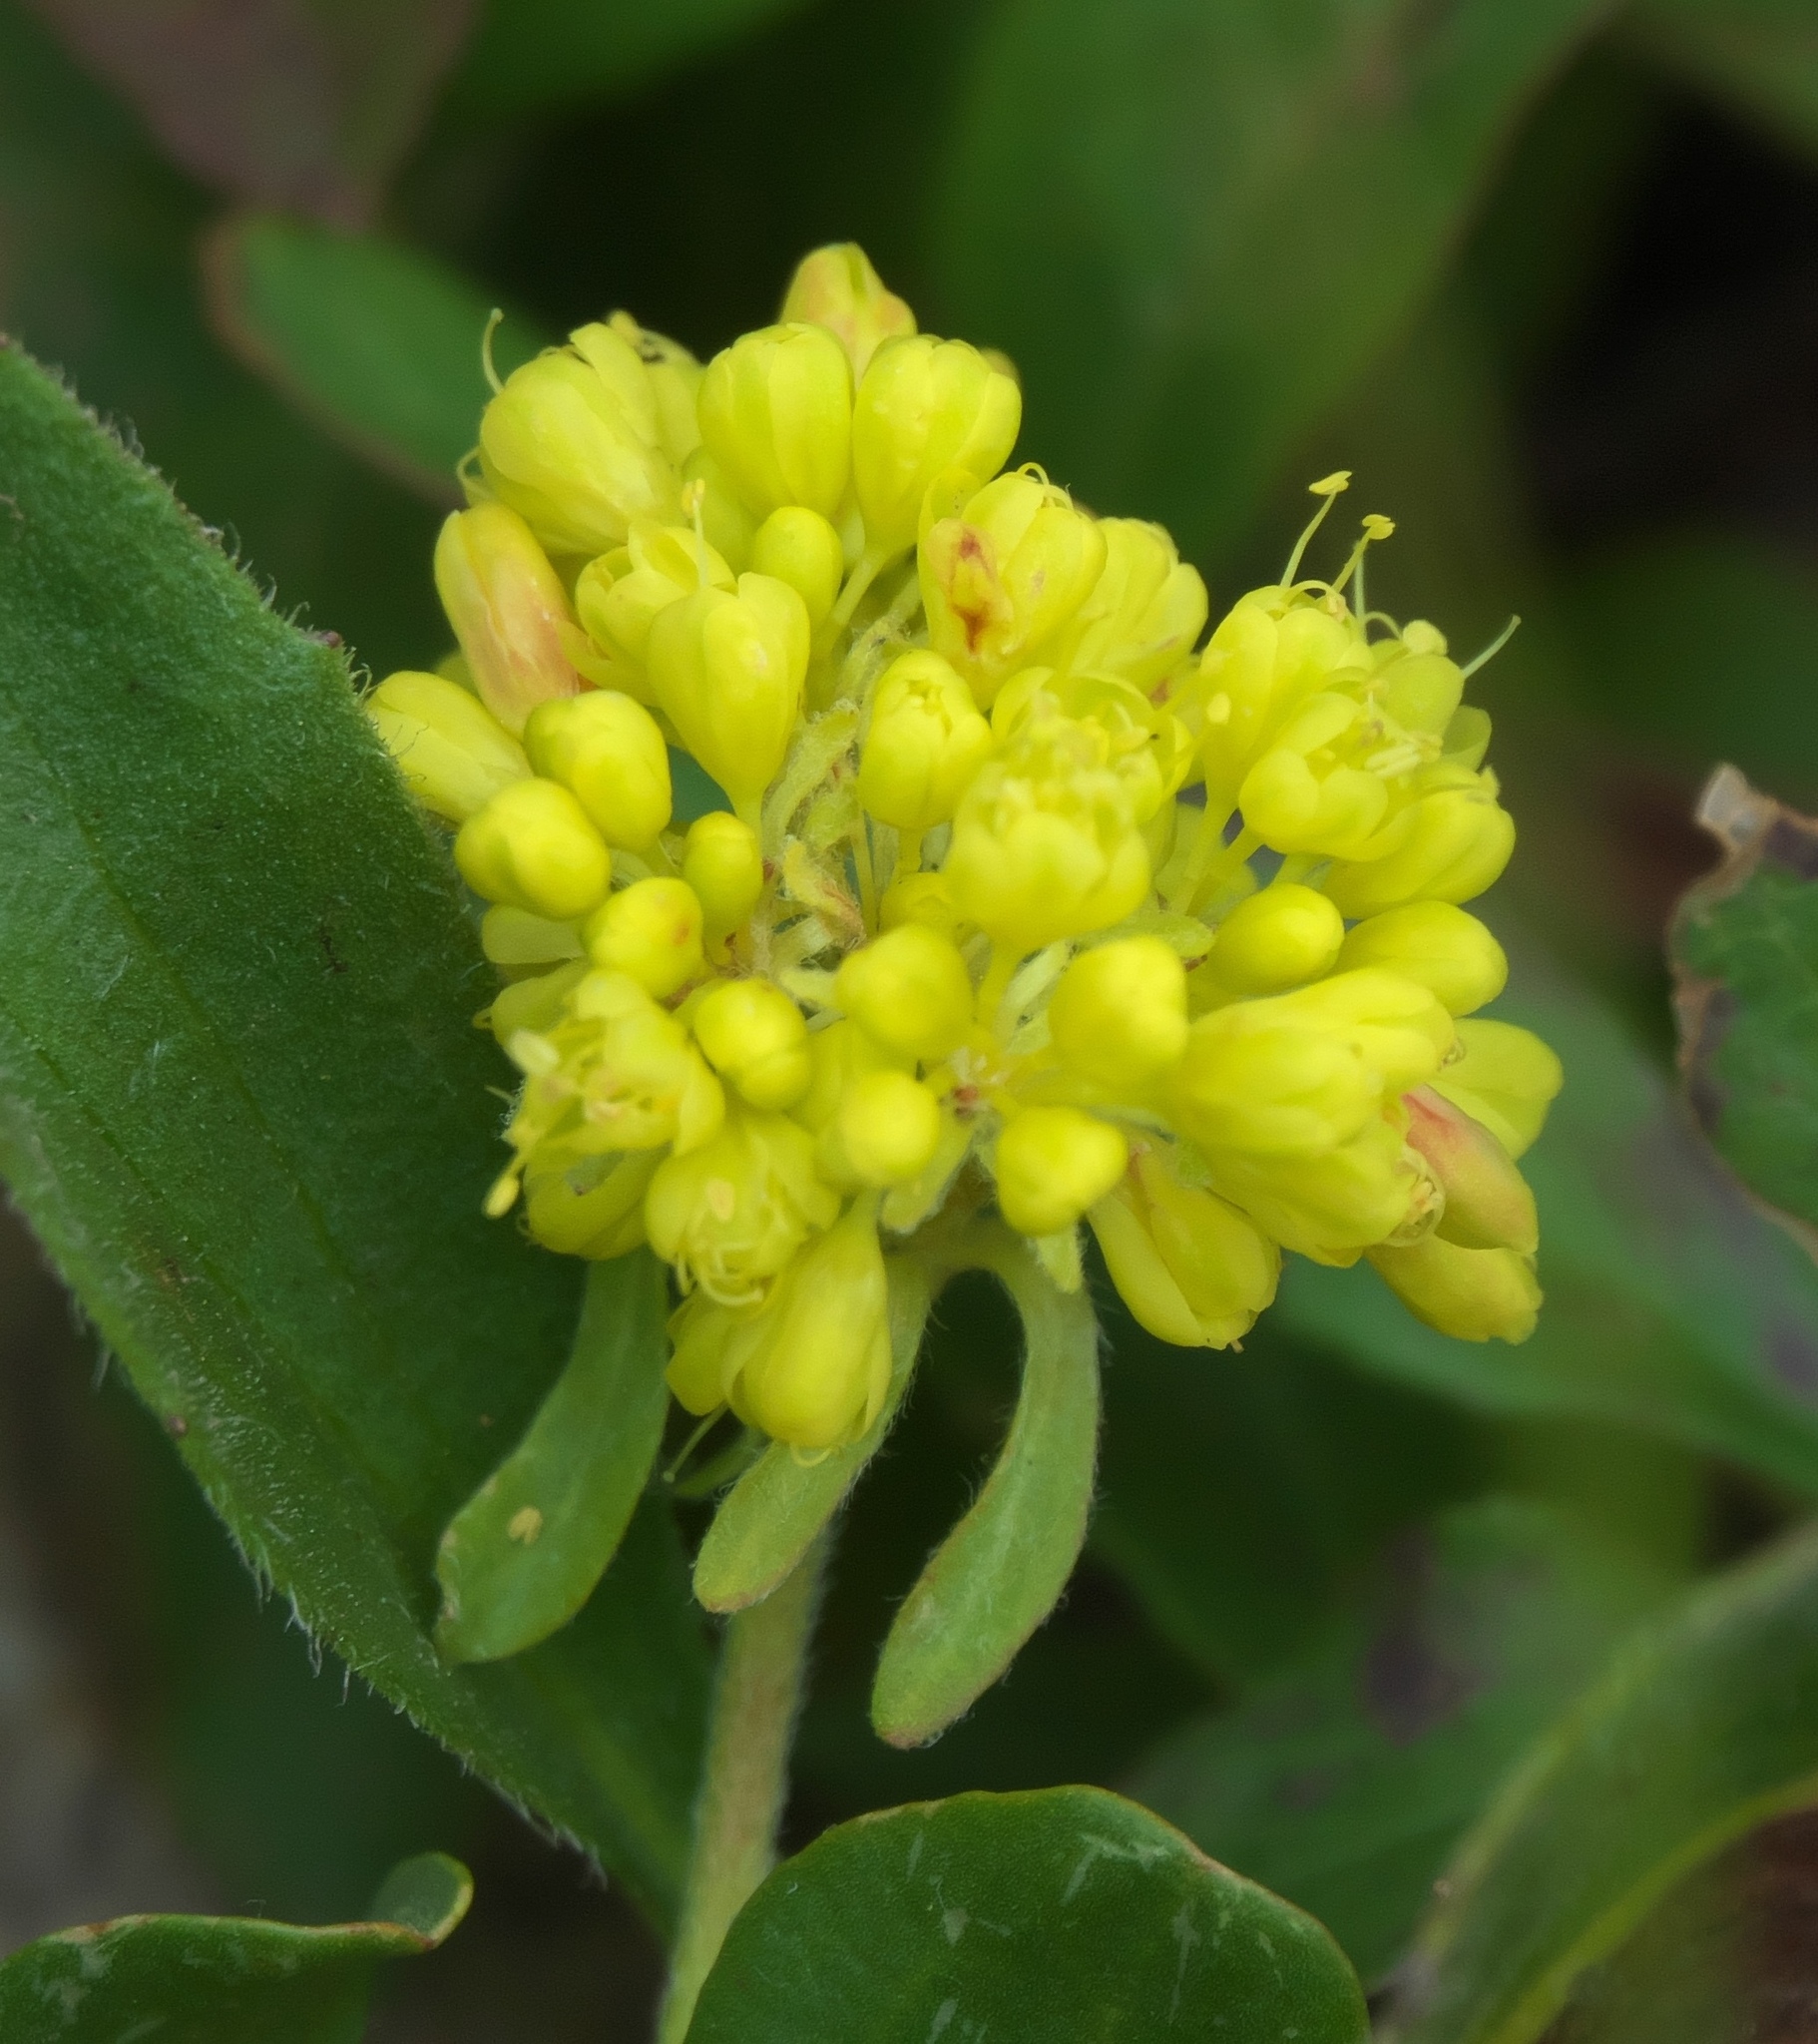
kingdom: Plantae
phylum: Tracheophyta
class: Magnoliopsida
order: Caryophyllales
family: Polygonaceae
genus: Eriogonum
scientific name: Eriogonum umbellatum
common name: Sulfur-buckwheat
